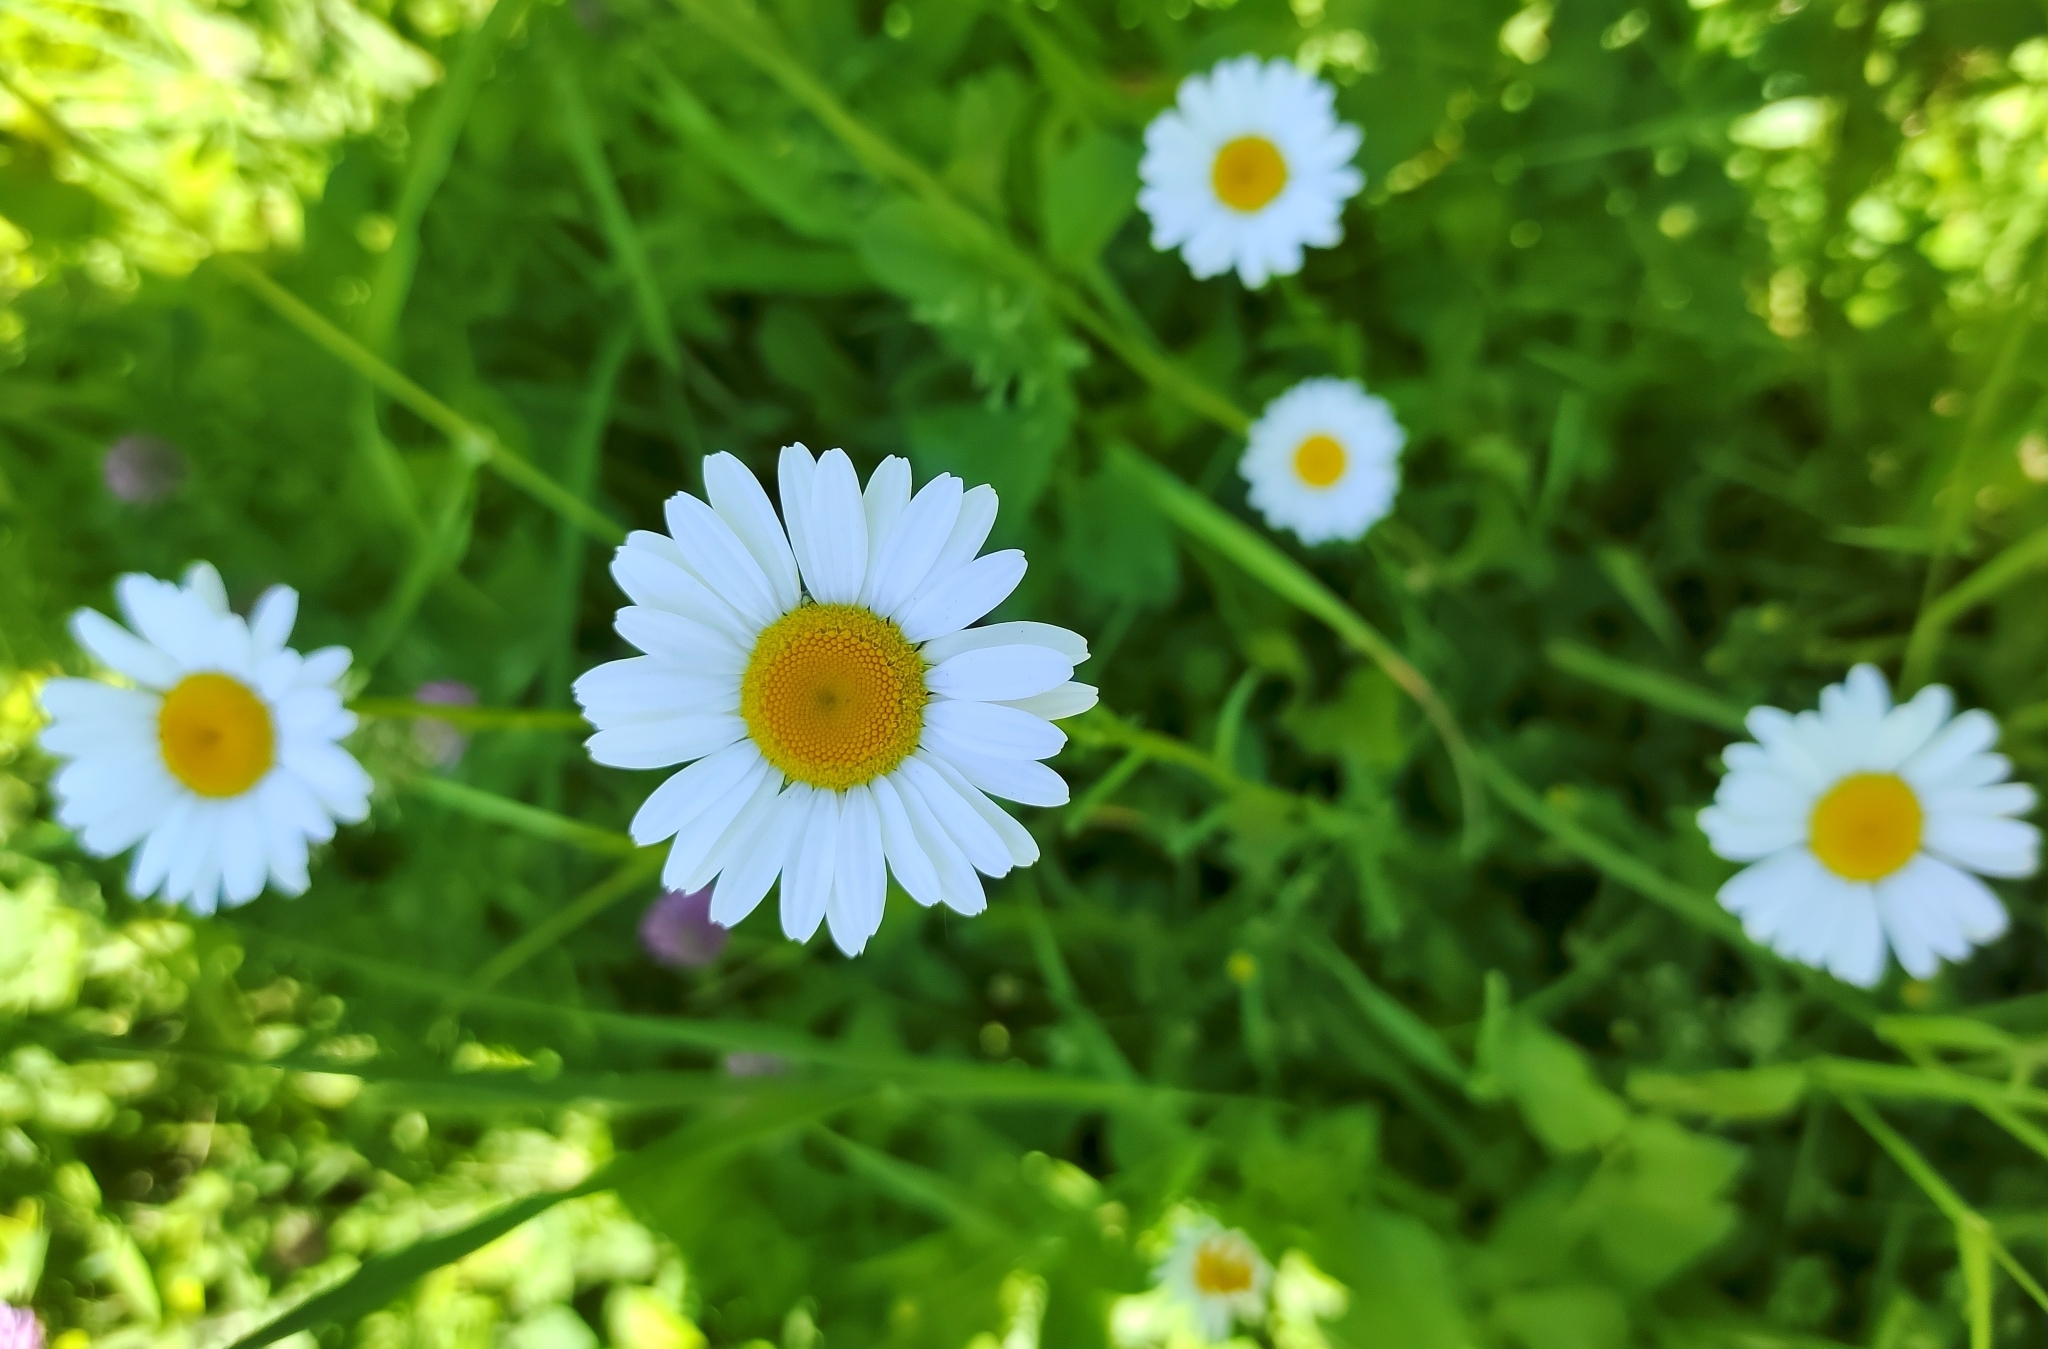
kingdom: Plantae
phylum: Tracheophyta
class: Magnoliopsida
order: Asterales
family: Asteraceae
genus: Leucanthemum
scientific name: Leucanthemum vulgare
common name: Oxeye daisy
